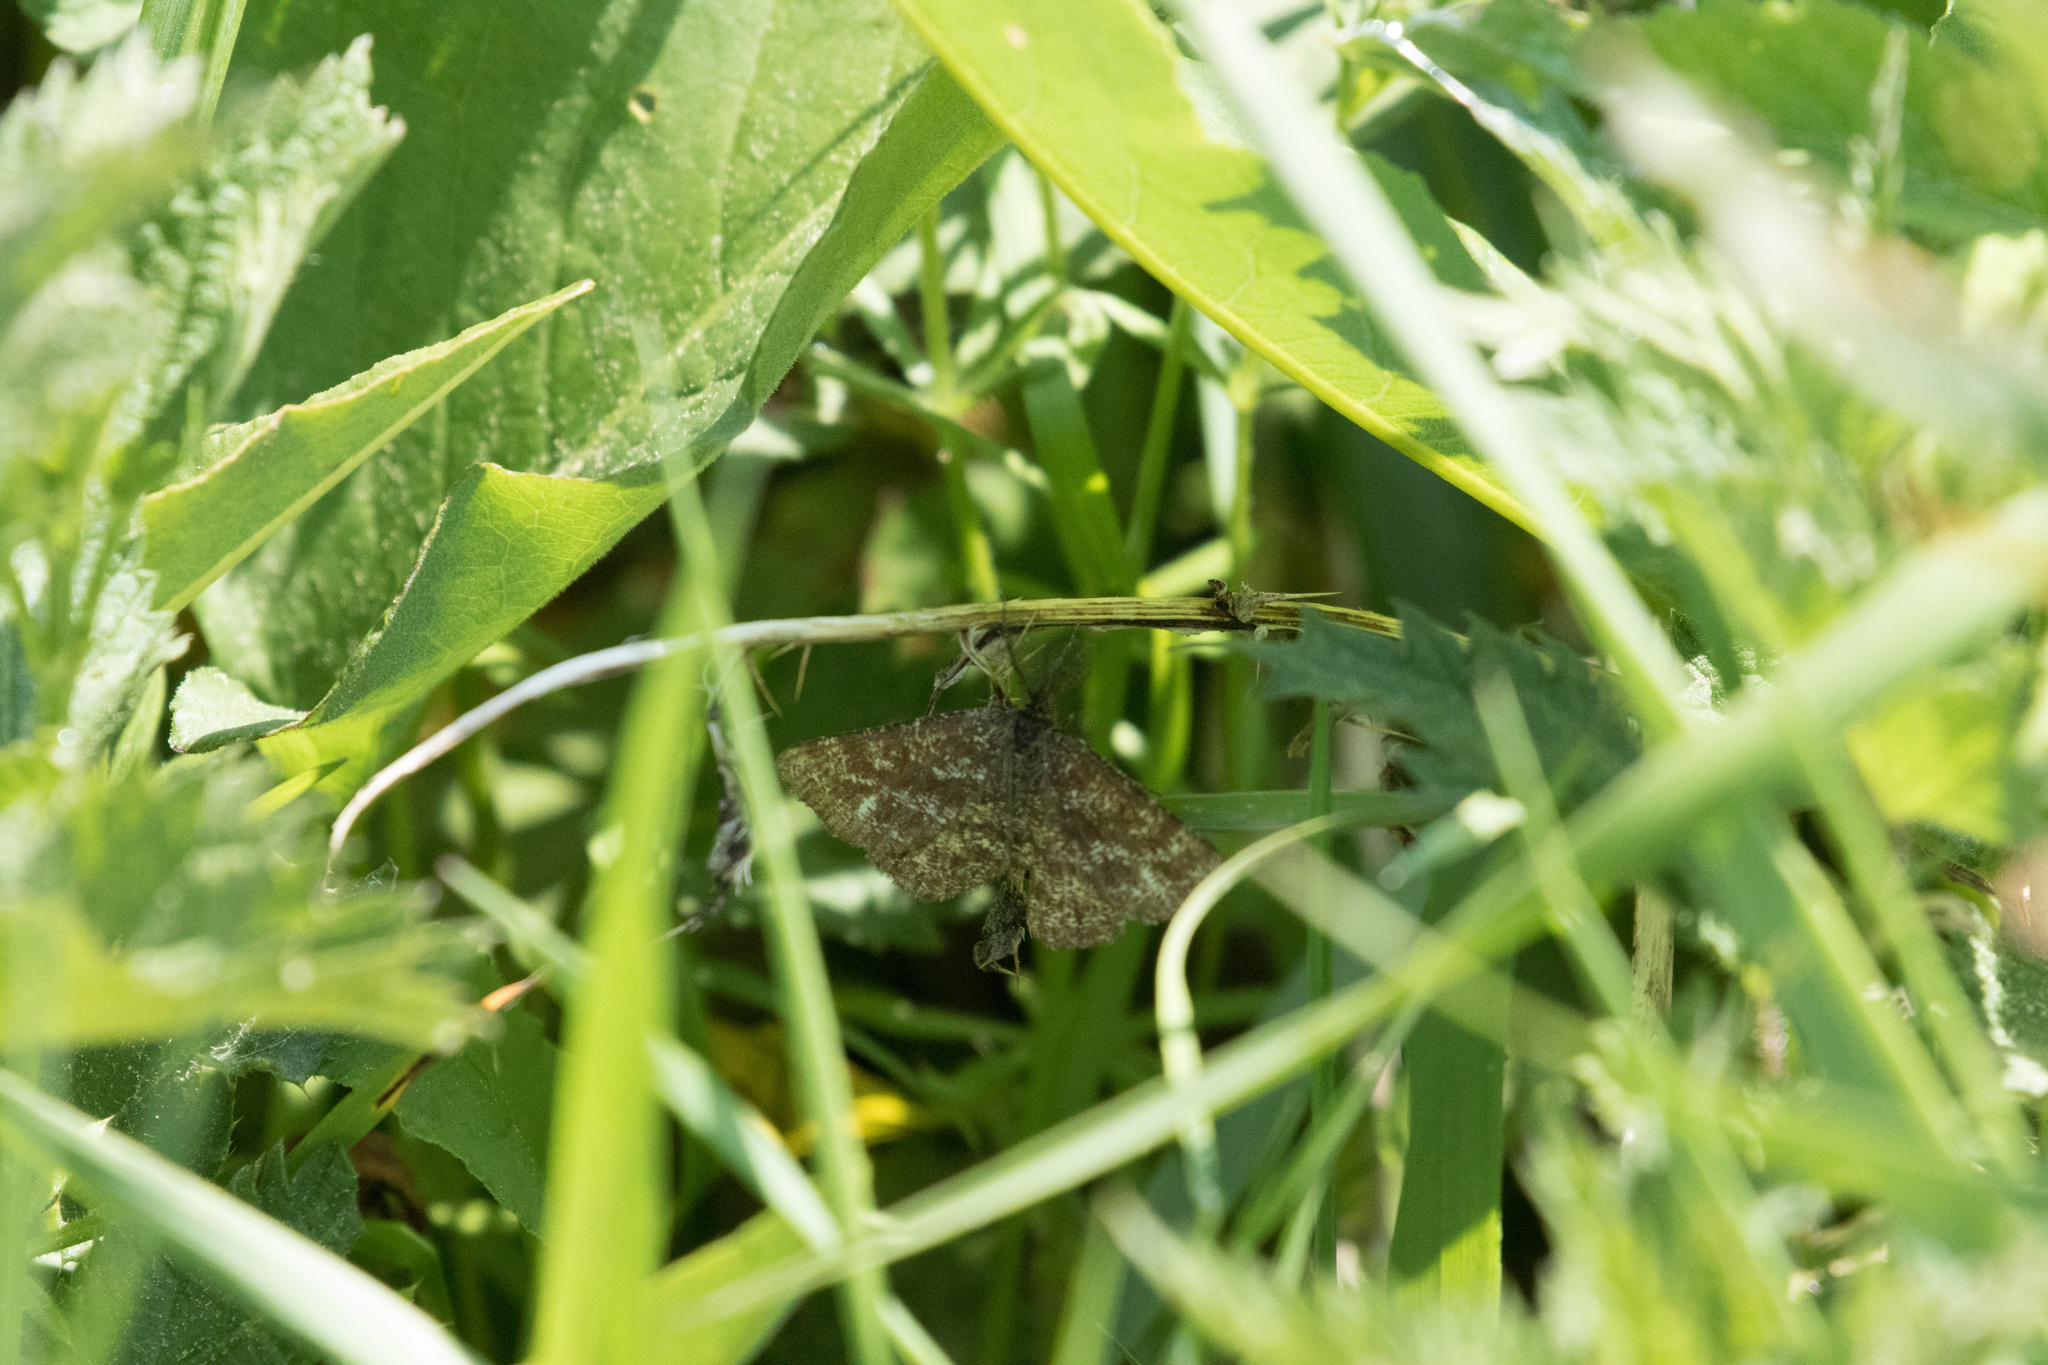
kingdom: Animalia
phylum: Arthropoda
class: Insecta
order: Lepidoptera
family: Geometridae
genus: Ematurga
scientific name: Ematurga atomaria
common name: Common heath
